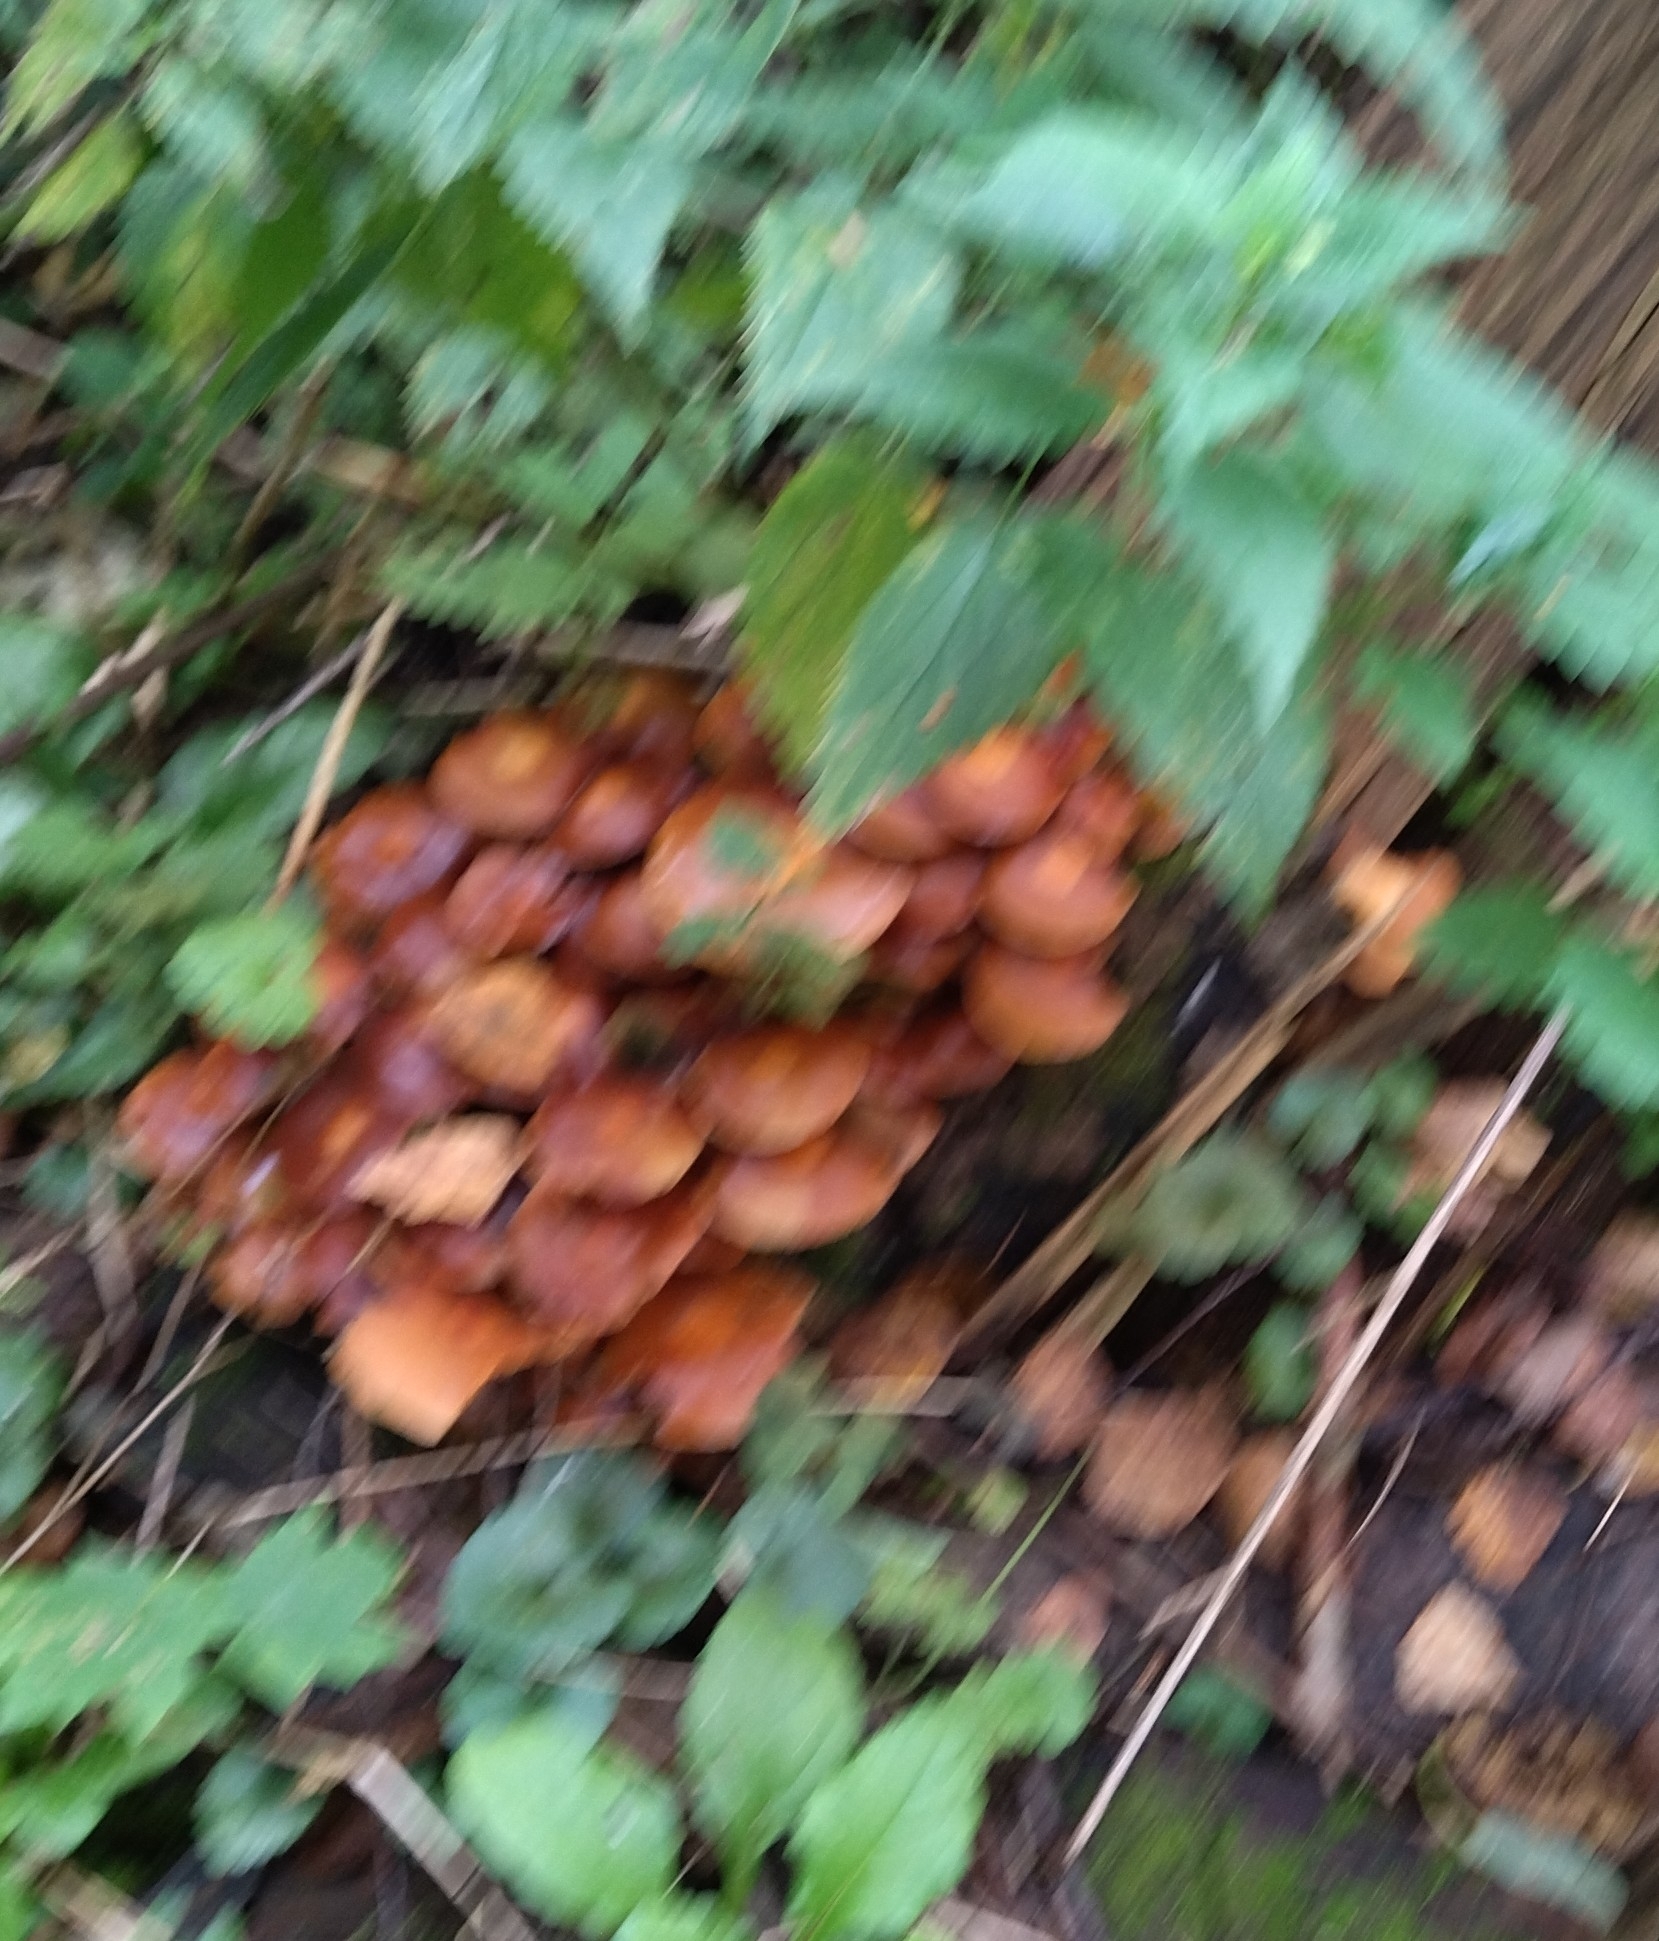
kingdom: Fungi
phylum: Basidiomycota
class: Agaricomycetes
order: Agaricales
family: Strophariaceae
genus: Kuehneromyces
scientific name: Kuehneromyces mutabilis
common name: Sheathed woodtuft
